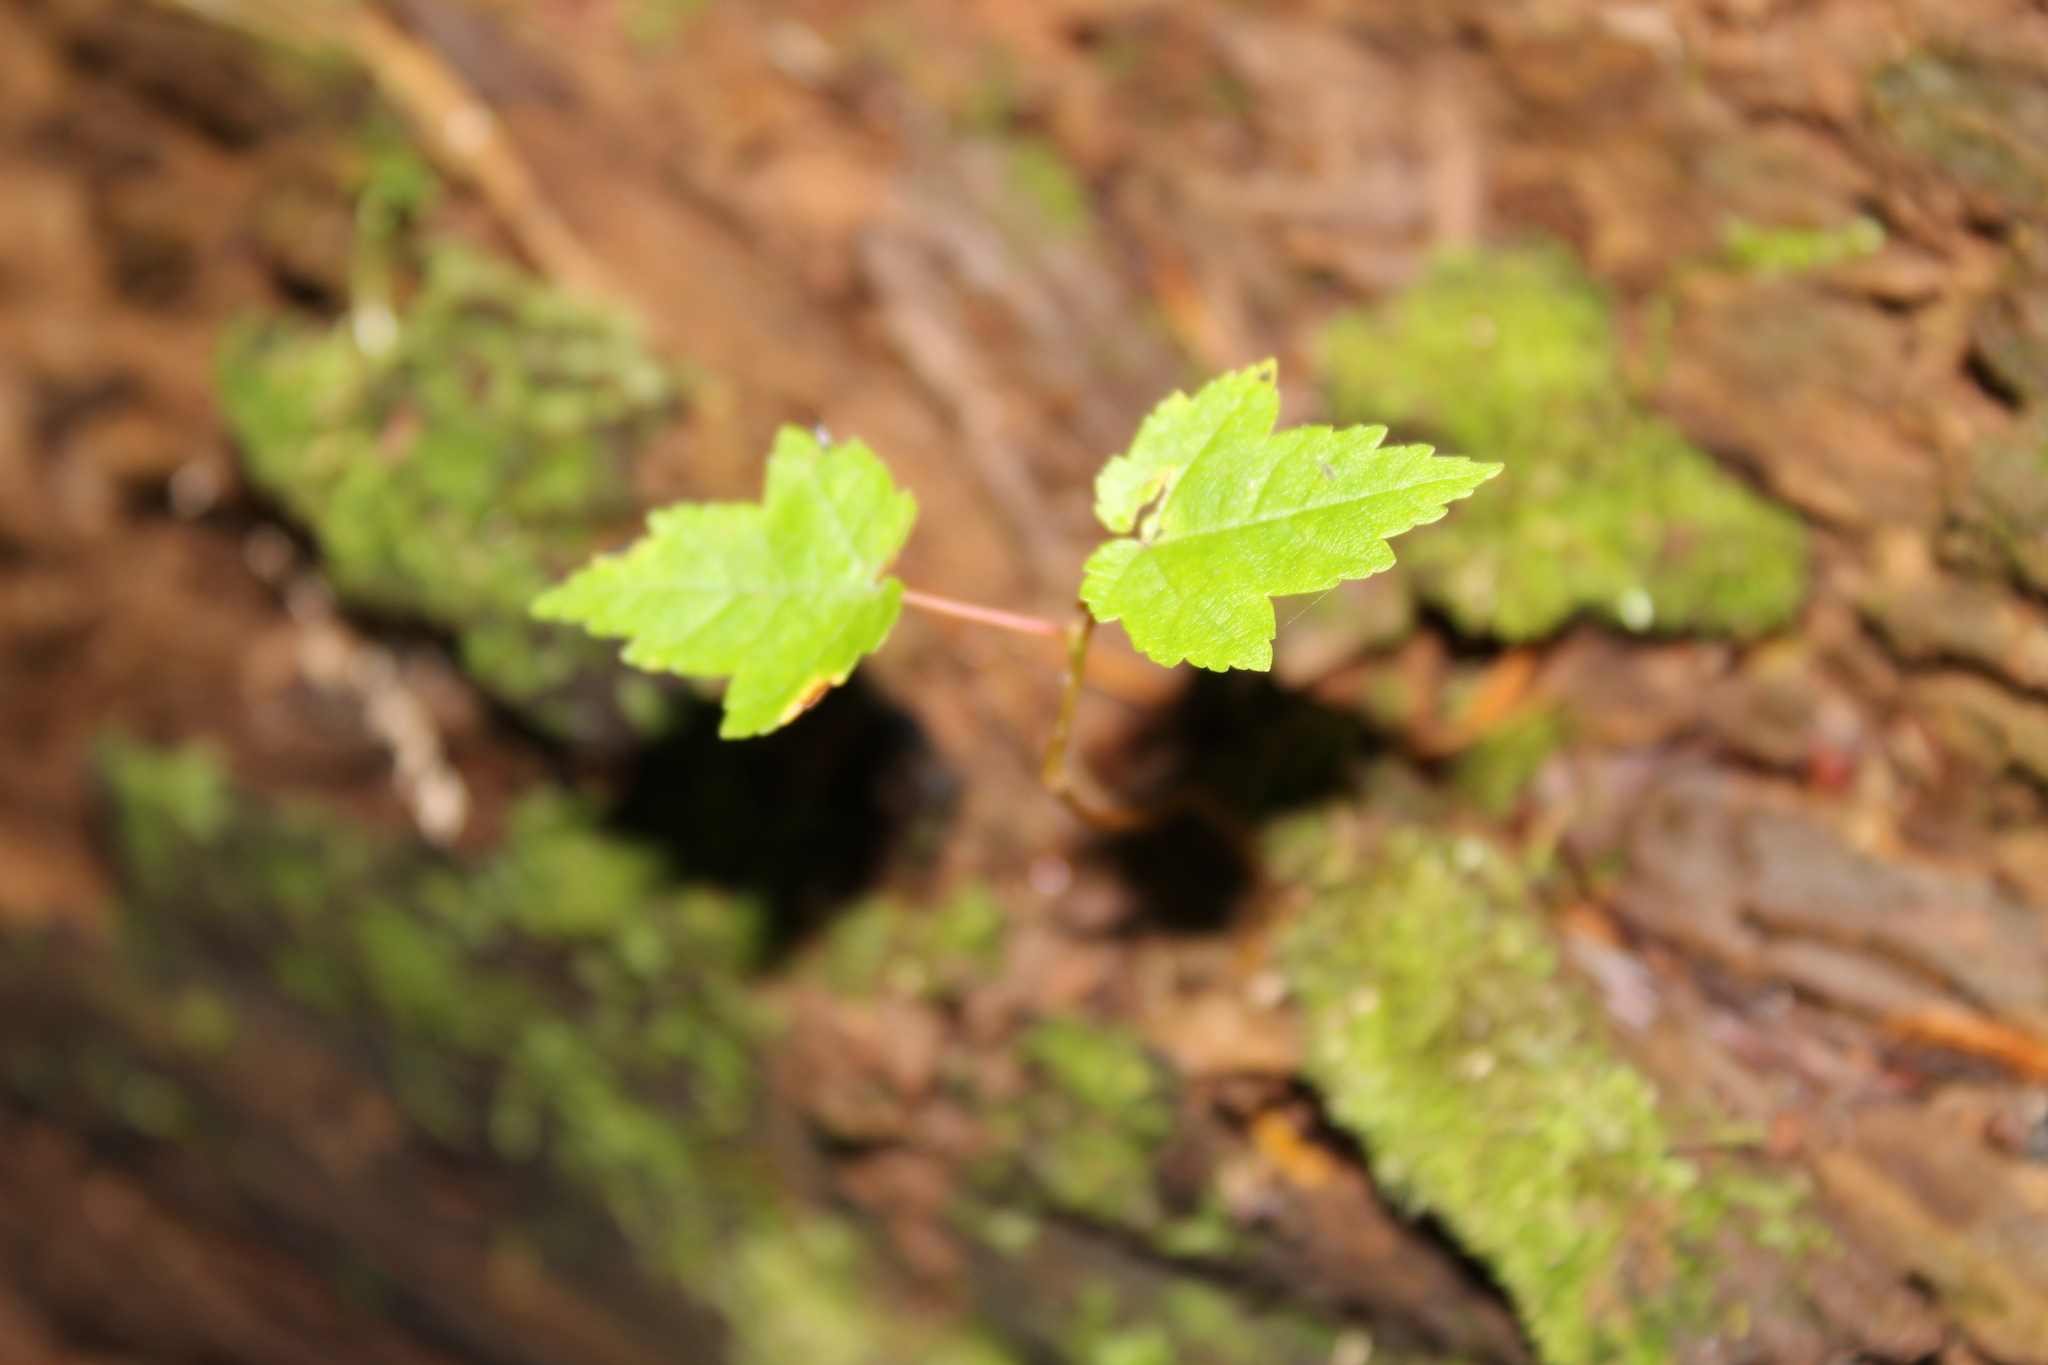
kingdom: Plantae
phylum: Tracheophyta
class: Magnoliopsida
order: Sapindales
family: Sapindaceae
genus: Acer
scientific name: Acer rubrum
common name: Red maple
